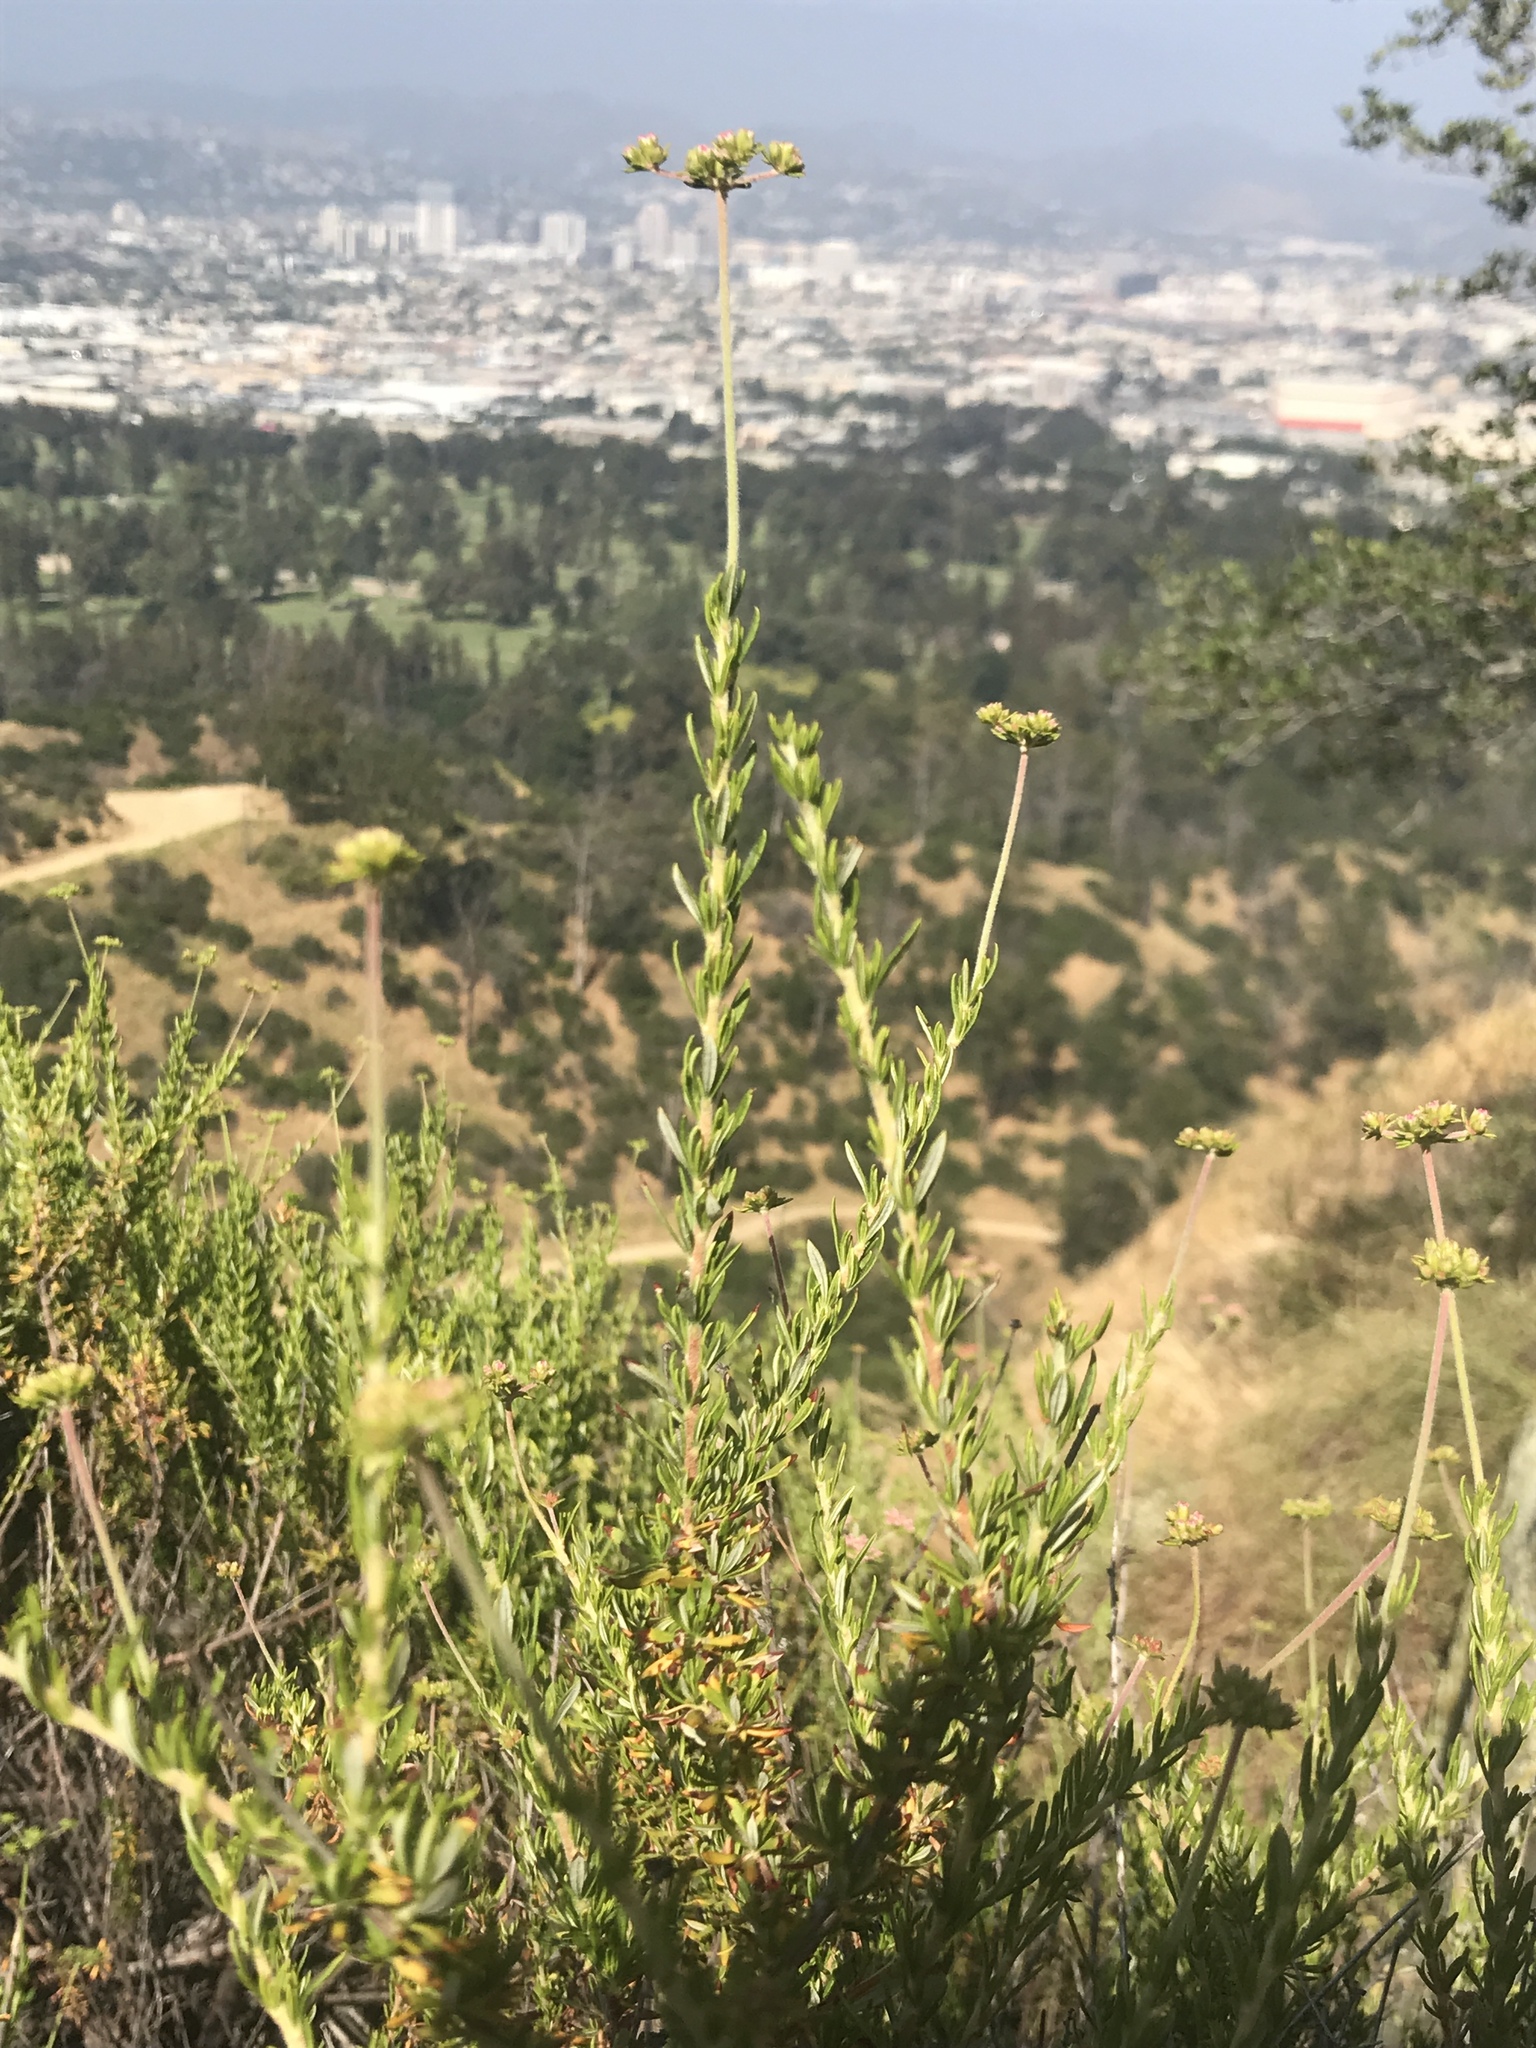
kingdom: Plantae
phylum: Tracheophyta
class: Magnoliopsida
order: Caryophyllales
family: Polygonaceae
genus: Eriogonum
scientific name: Eriogonum fasciculatum
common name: California wild buckwheat
